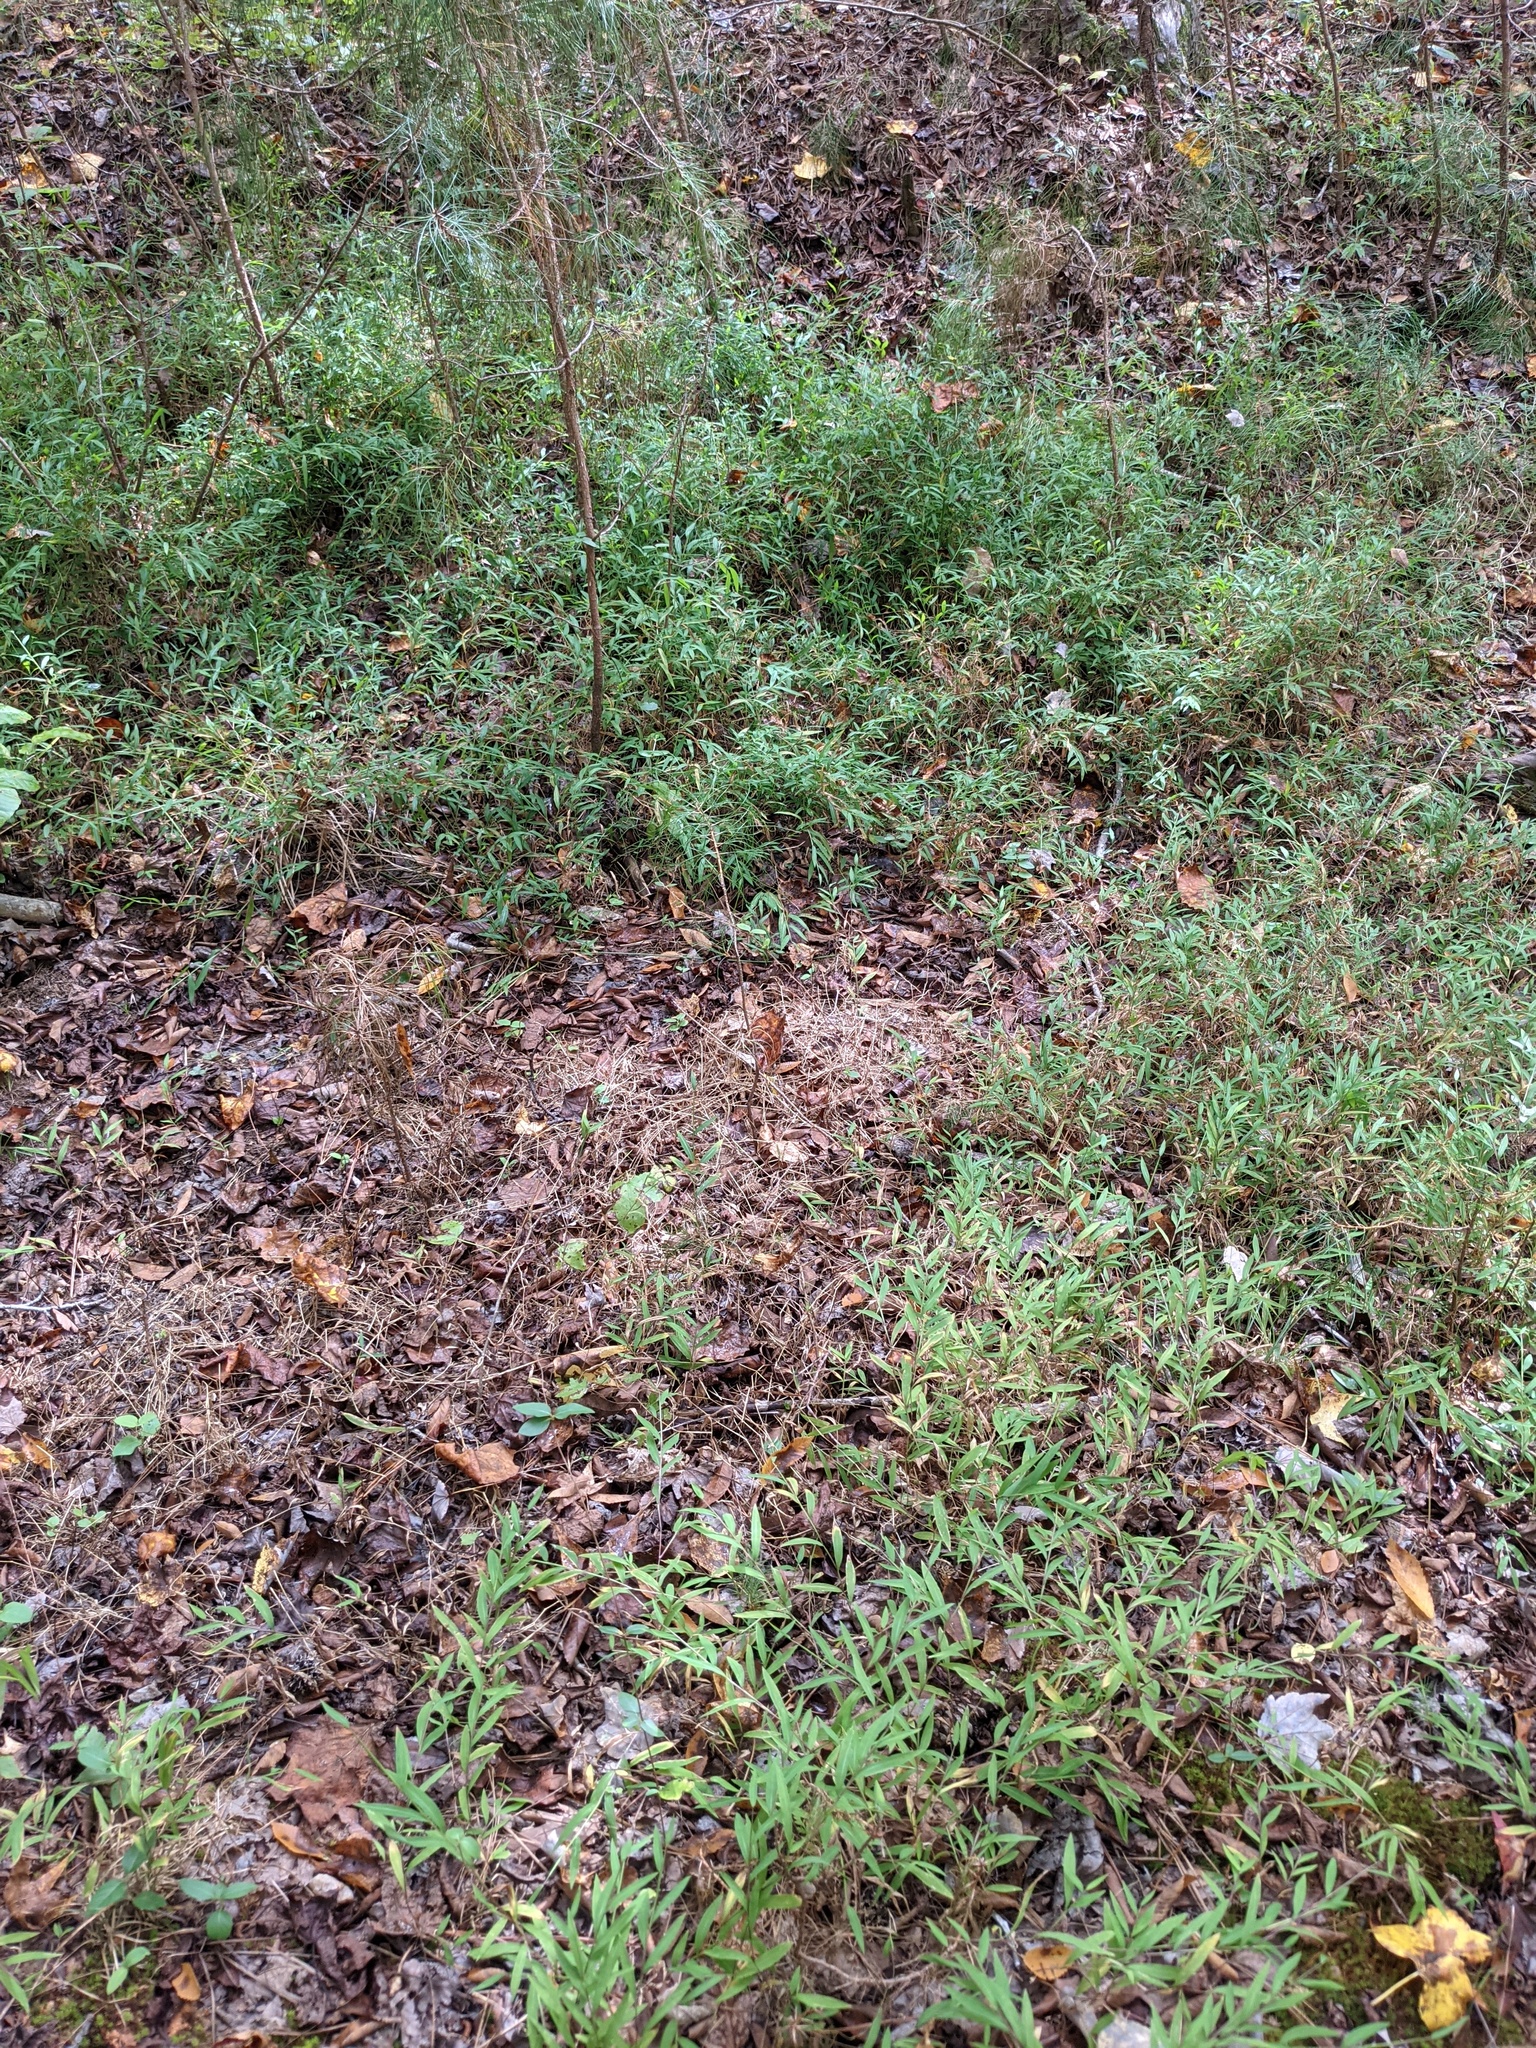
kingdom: Plantae
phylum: Tracheophyta
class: Liliopsida
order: Poales
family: Poaceae
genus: Microstegium
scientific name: Microstegium vimineum
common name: Japanese stiltgrass
